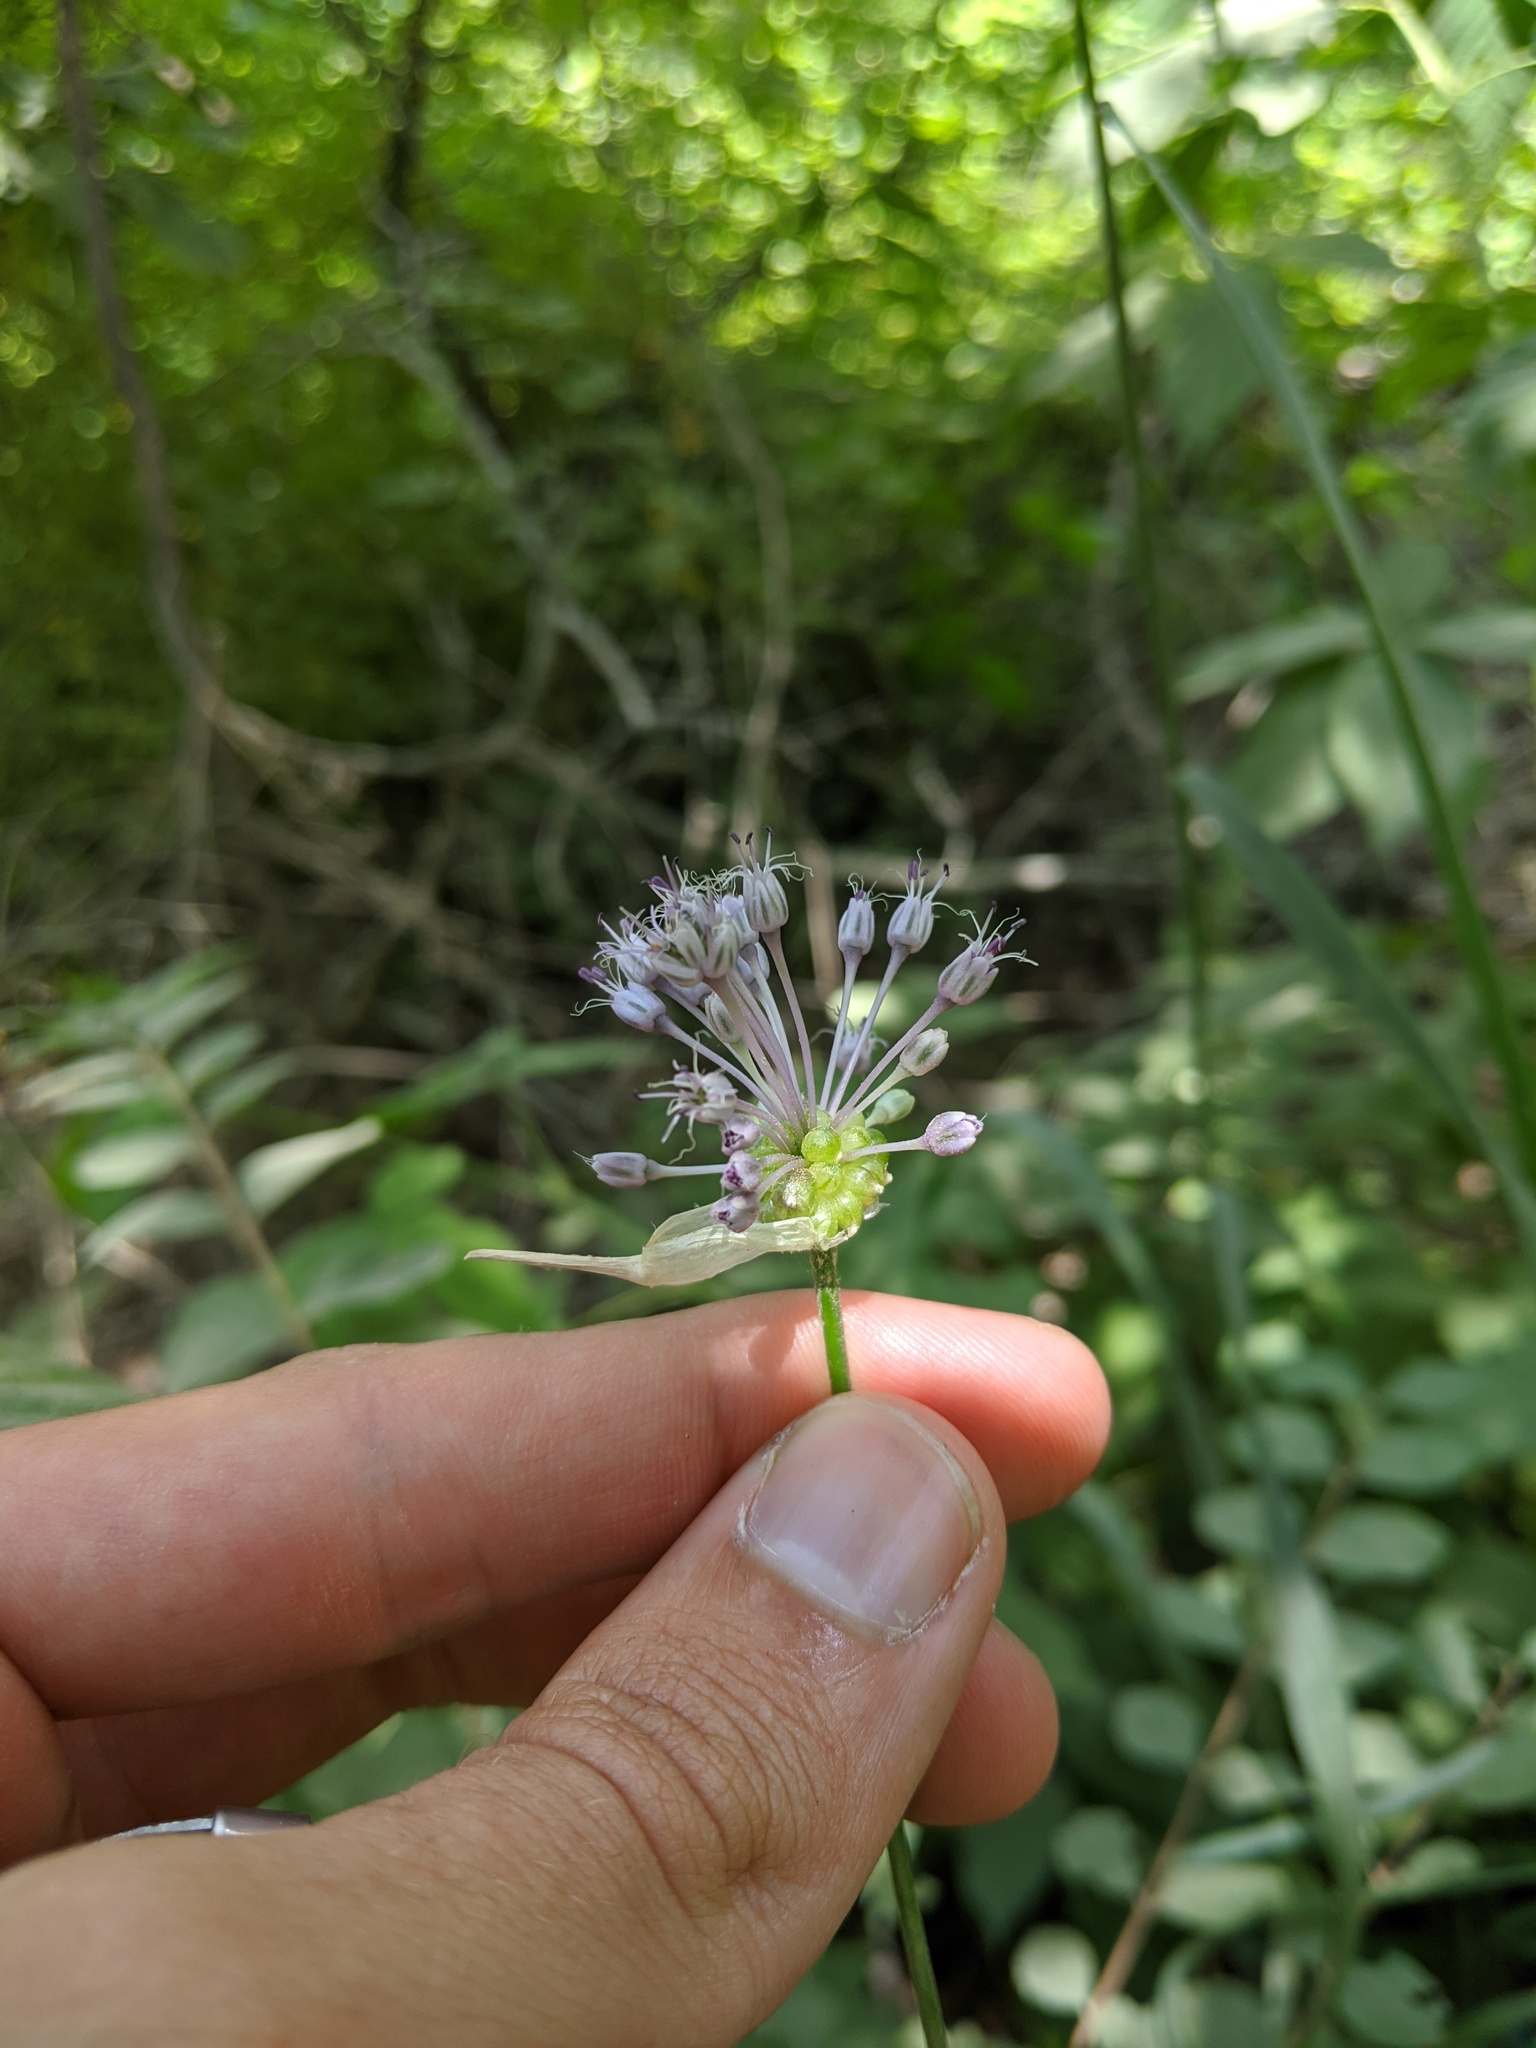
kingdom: Plantae
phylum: Tracheophyta
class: Liliopsida
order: Asparagales
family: Amaryllidaceae
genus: Allium
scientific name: Allium vineale
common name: Crow garlic
